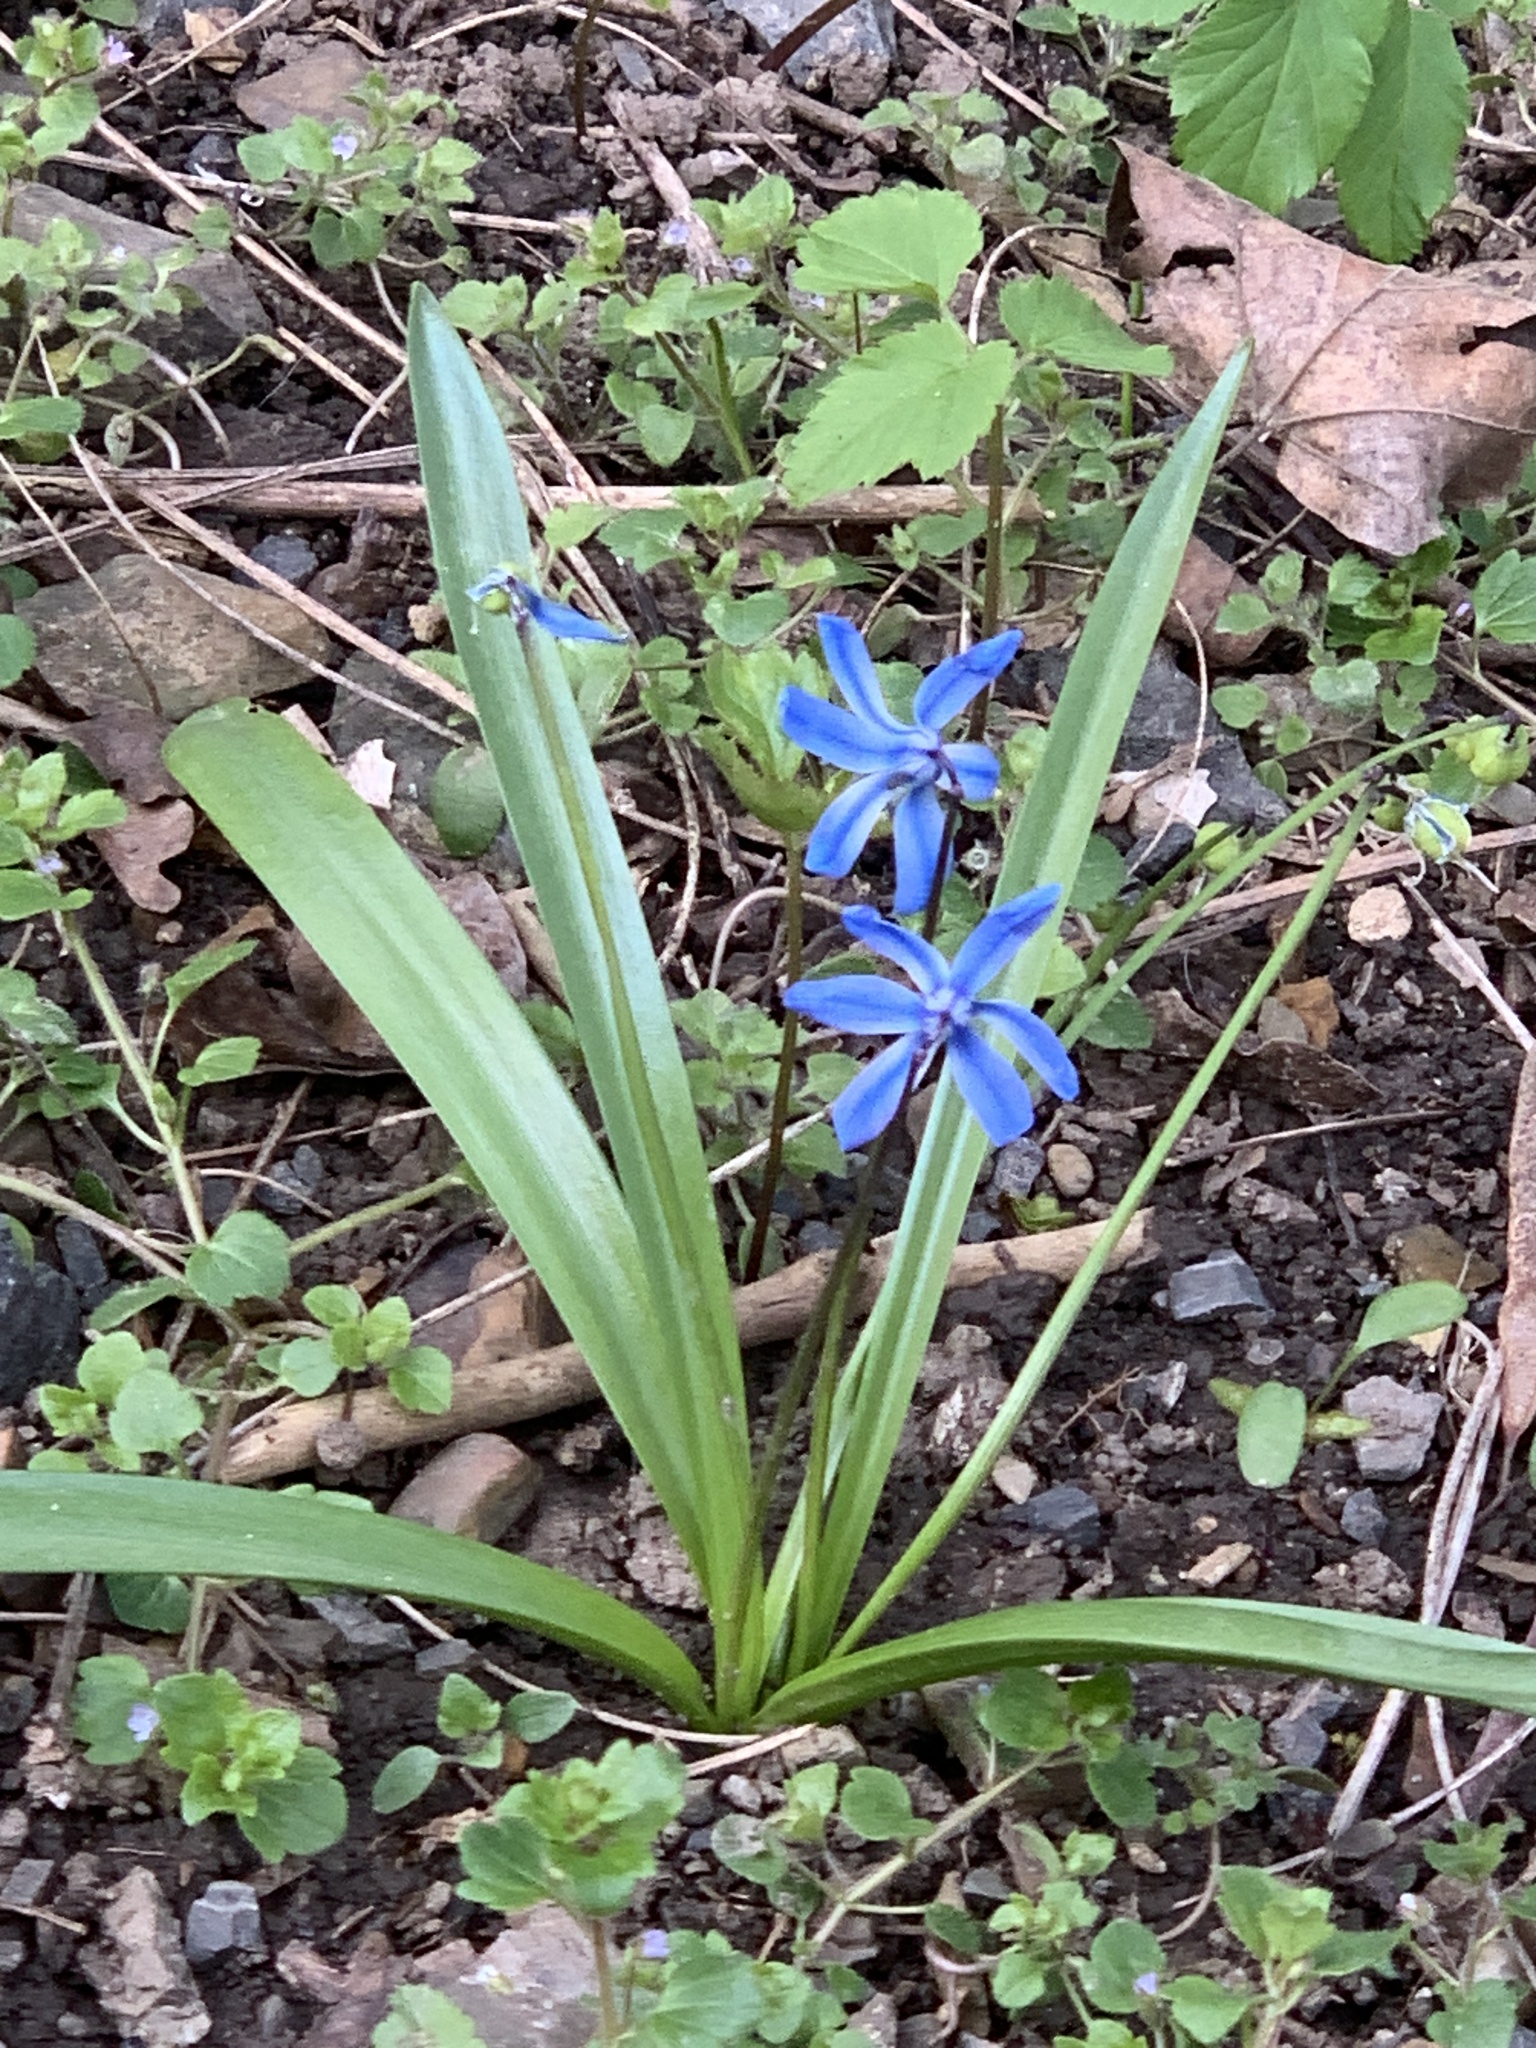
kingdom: Plantae
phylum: Tracheophyta
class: Liliopsida
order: Asparagales
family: Asparagaceae
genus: Scilla
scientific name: Scilla siberica
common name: Siberian squill
